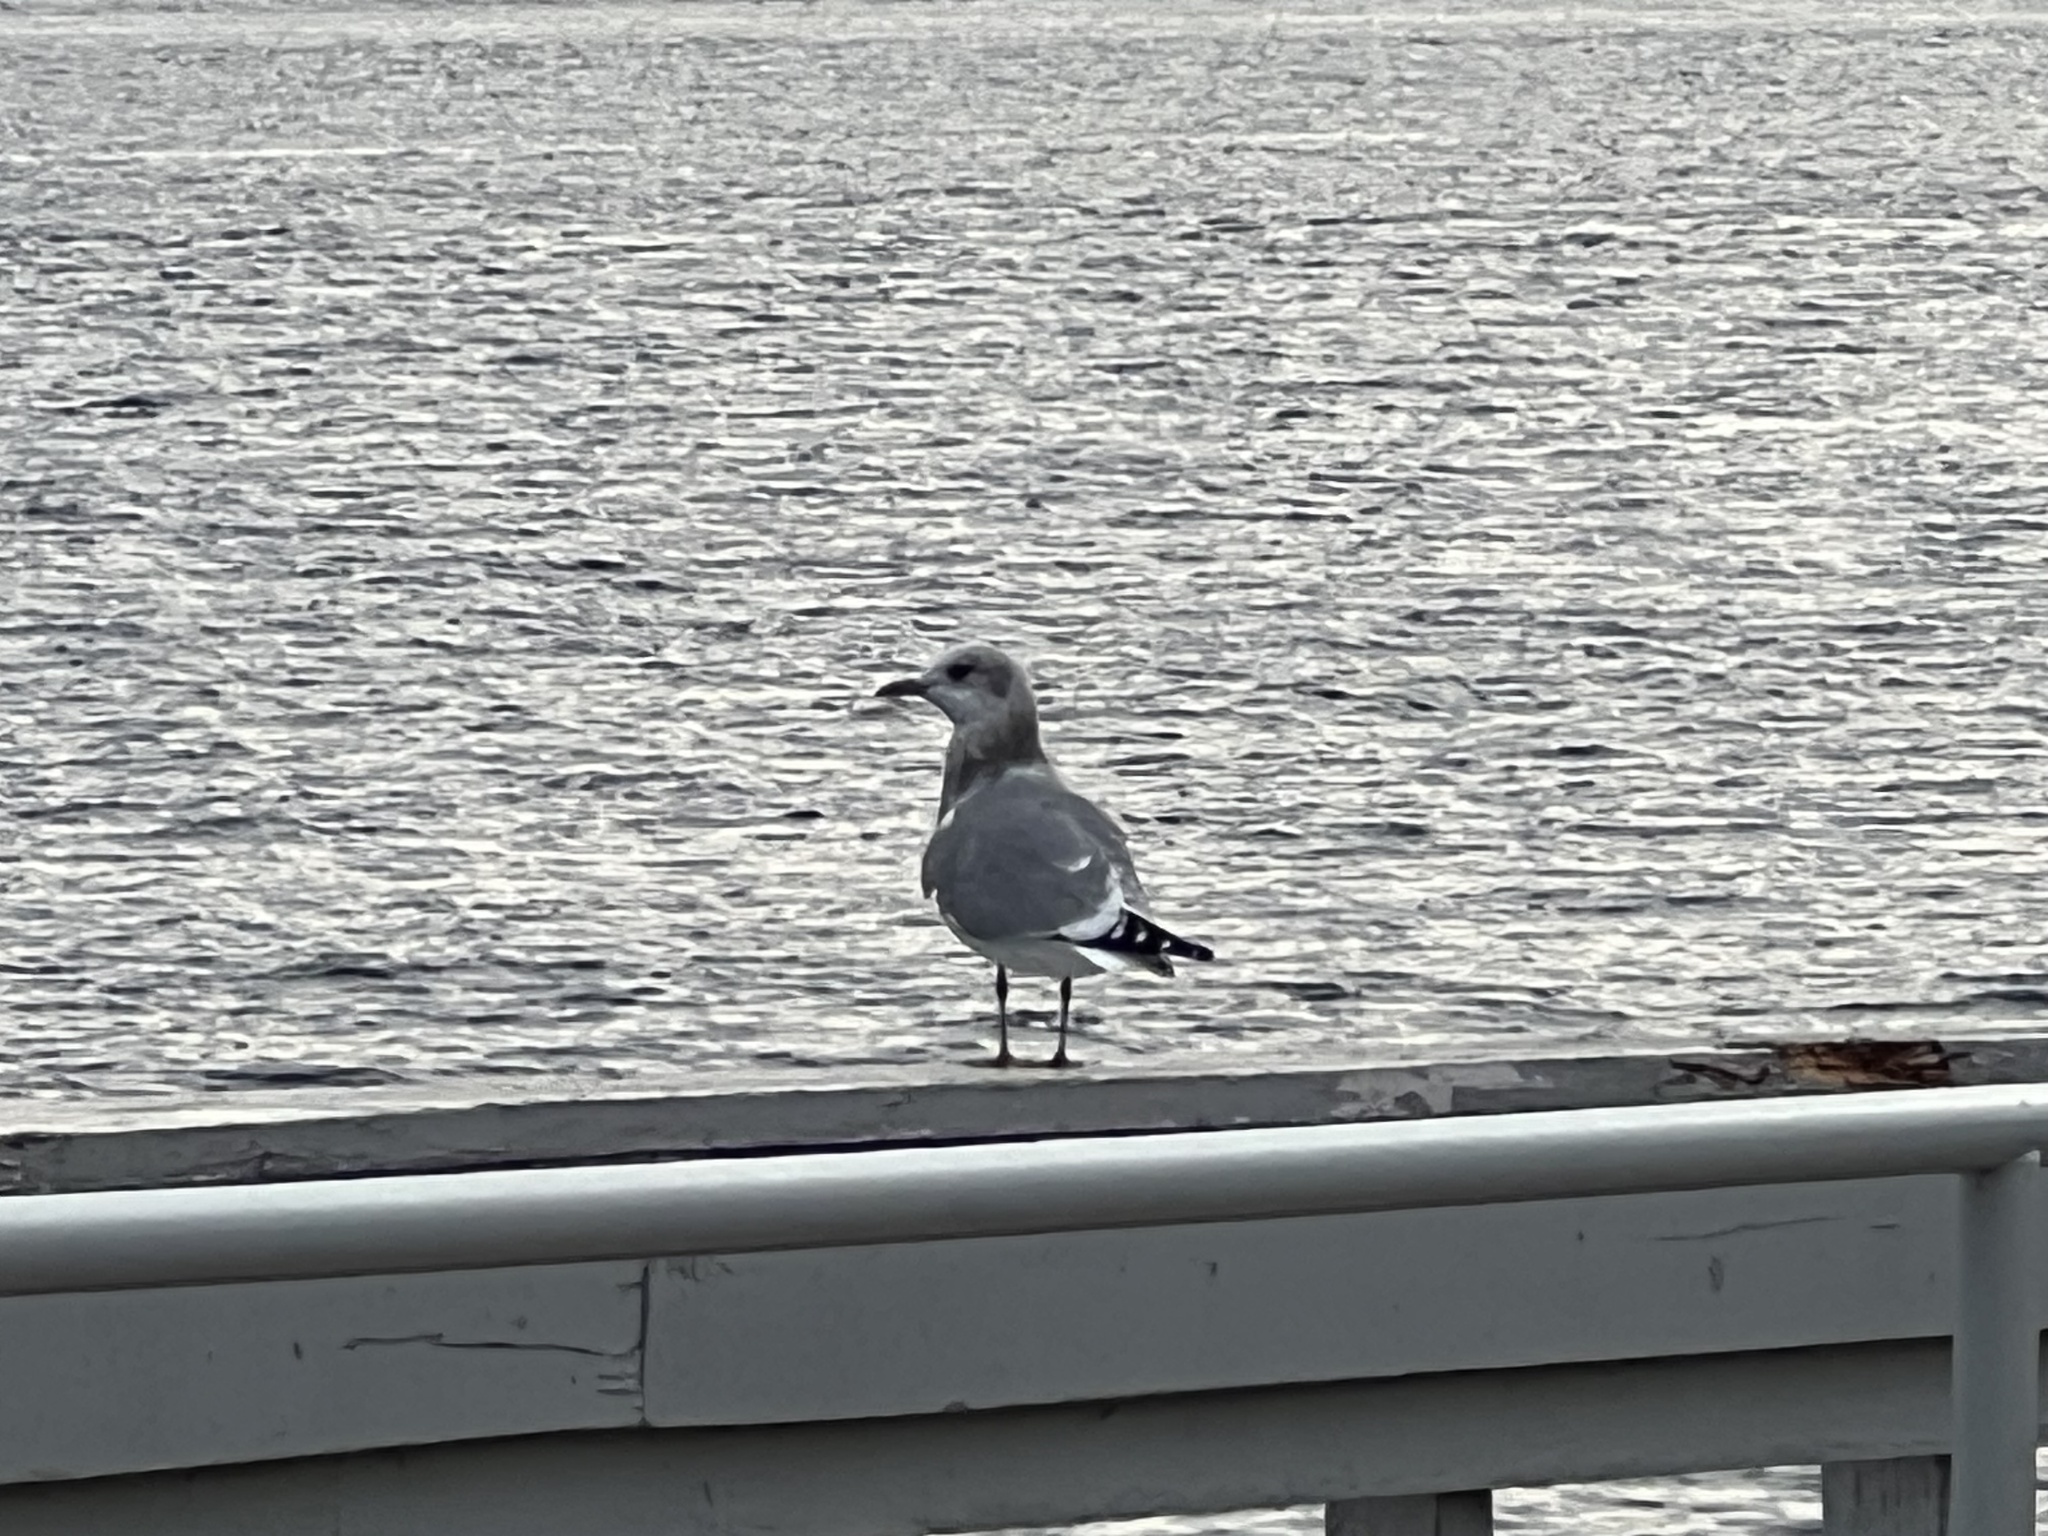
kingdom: Animalia
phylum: Chordata
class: Aves
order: Charadriiformes
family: Laridae
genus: Larus
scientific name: Larus brachyrhynchus
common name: Short-billed gull
